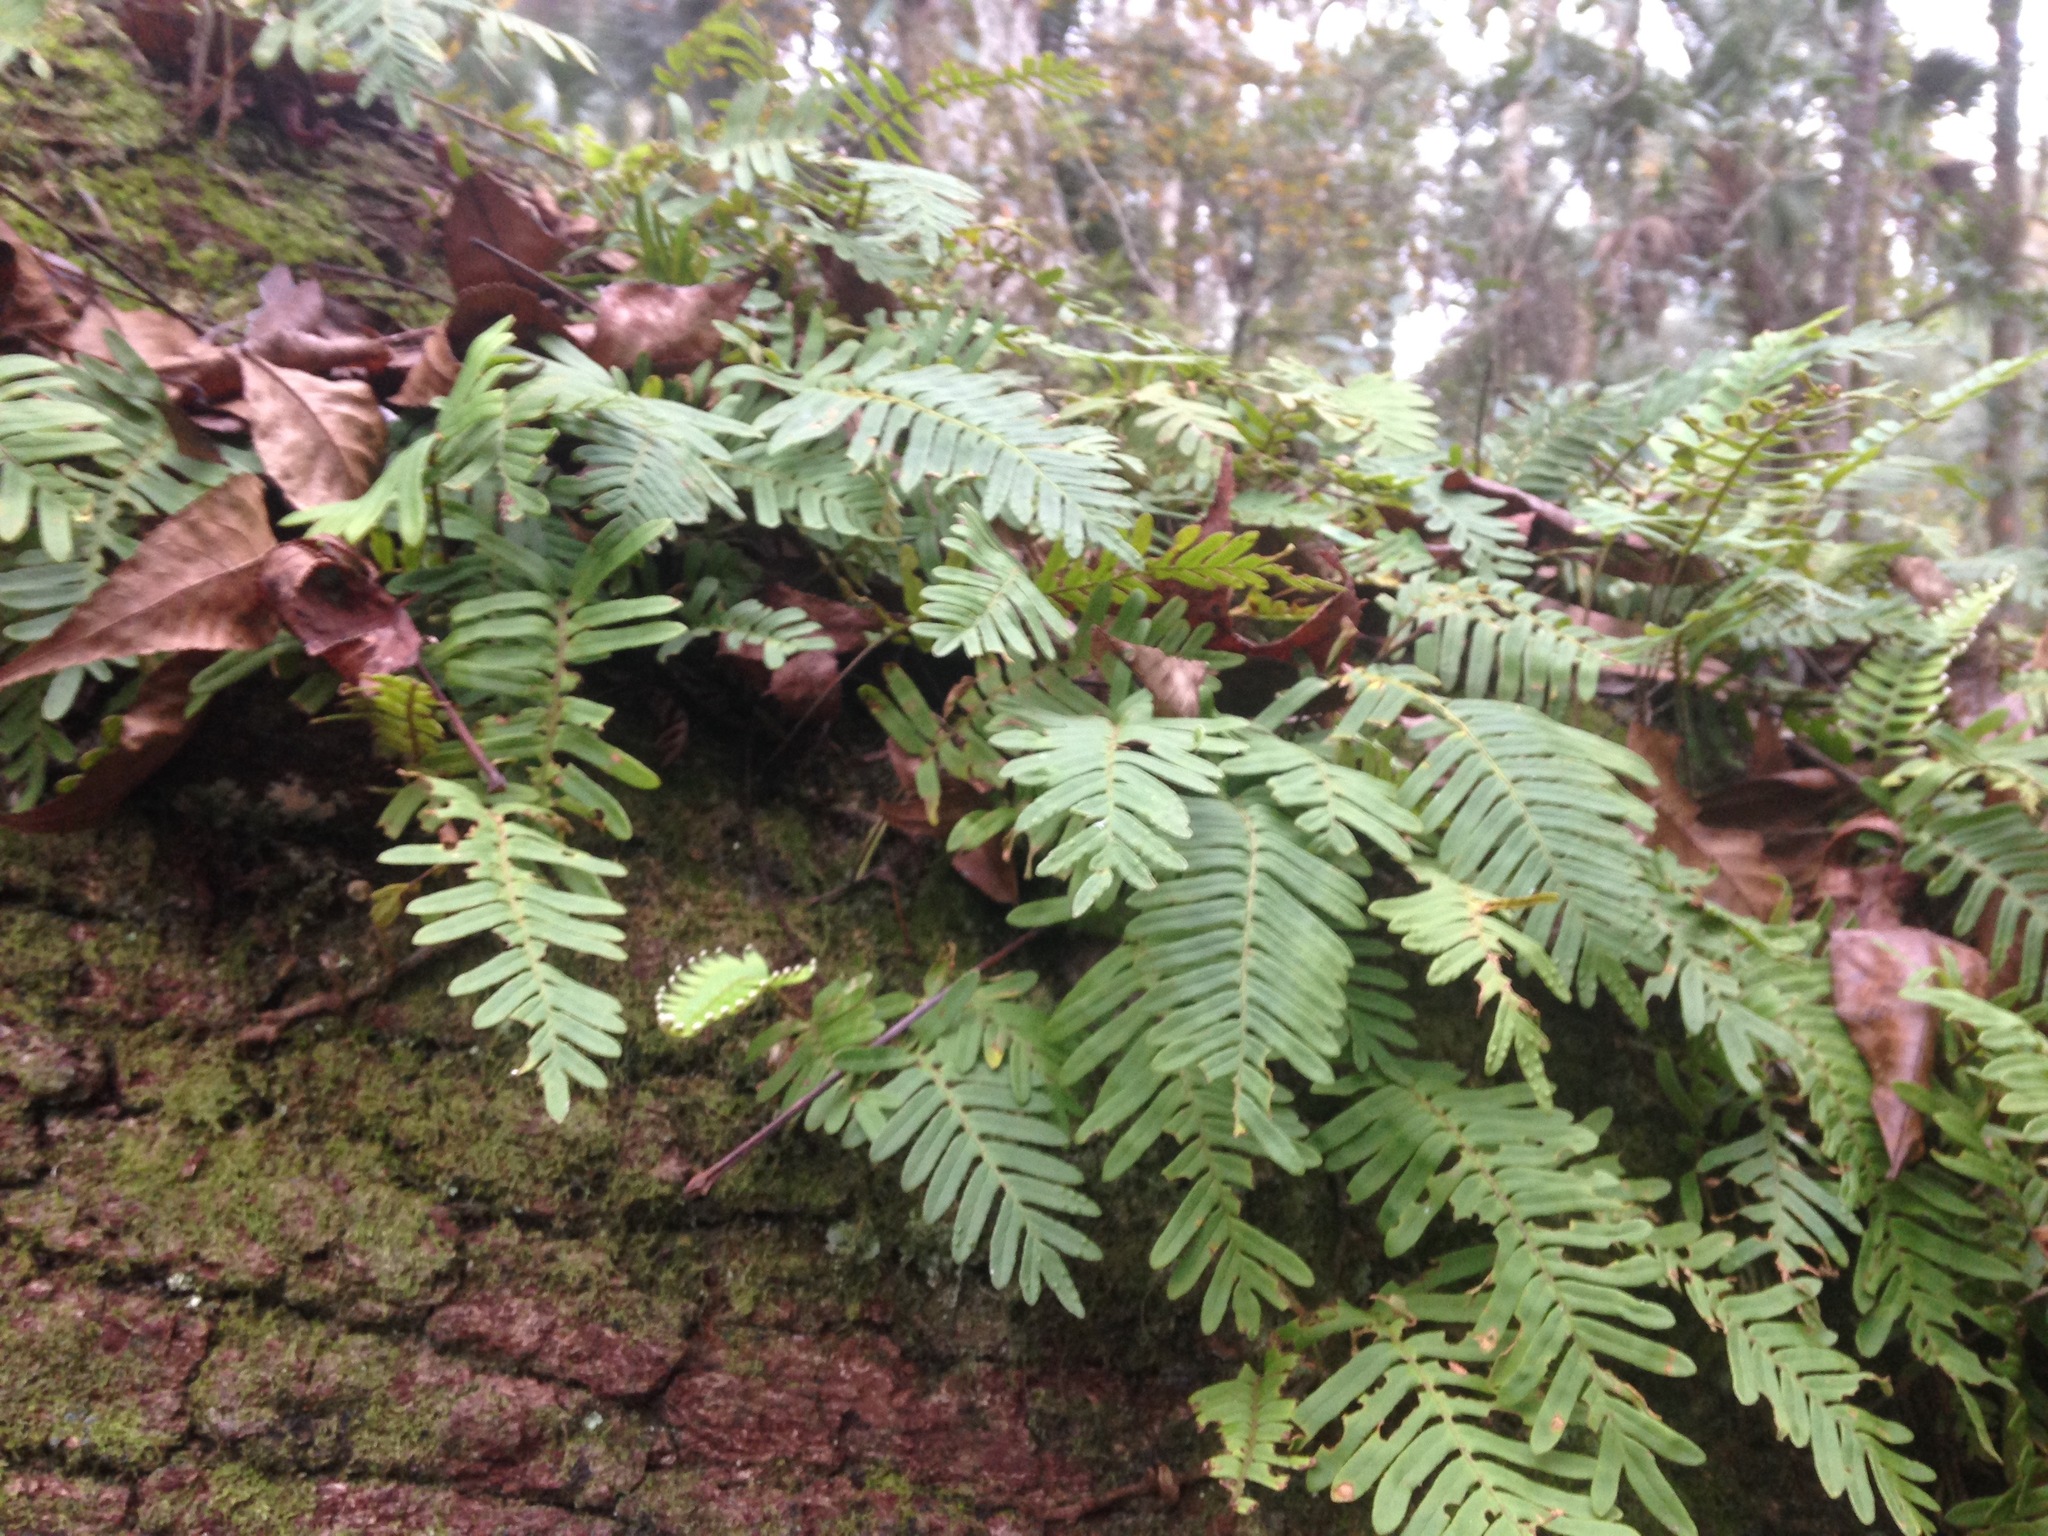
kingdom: Plantae
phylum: Tracheophyta
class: Polypodiopsida
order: Polypodiales
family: Polypodiaceae
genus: Pleopeltis
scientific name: Pleopeltis michauxiana
